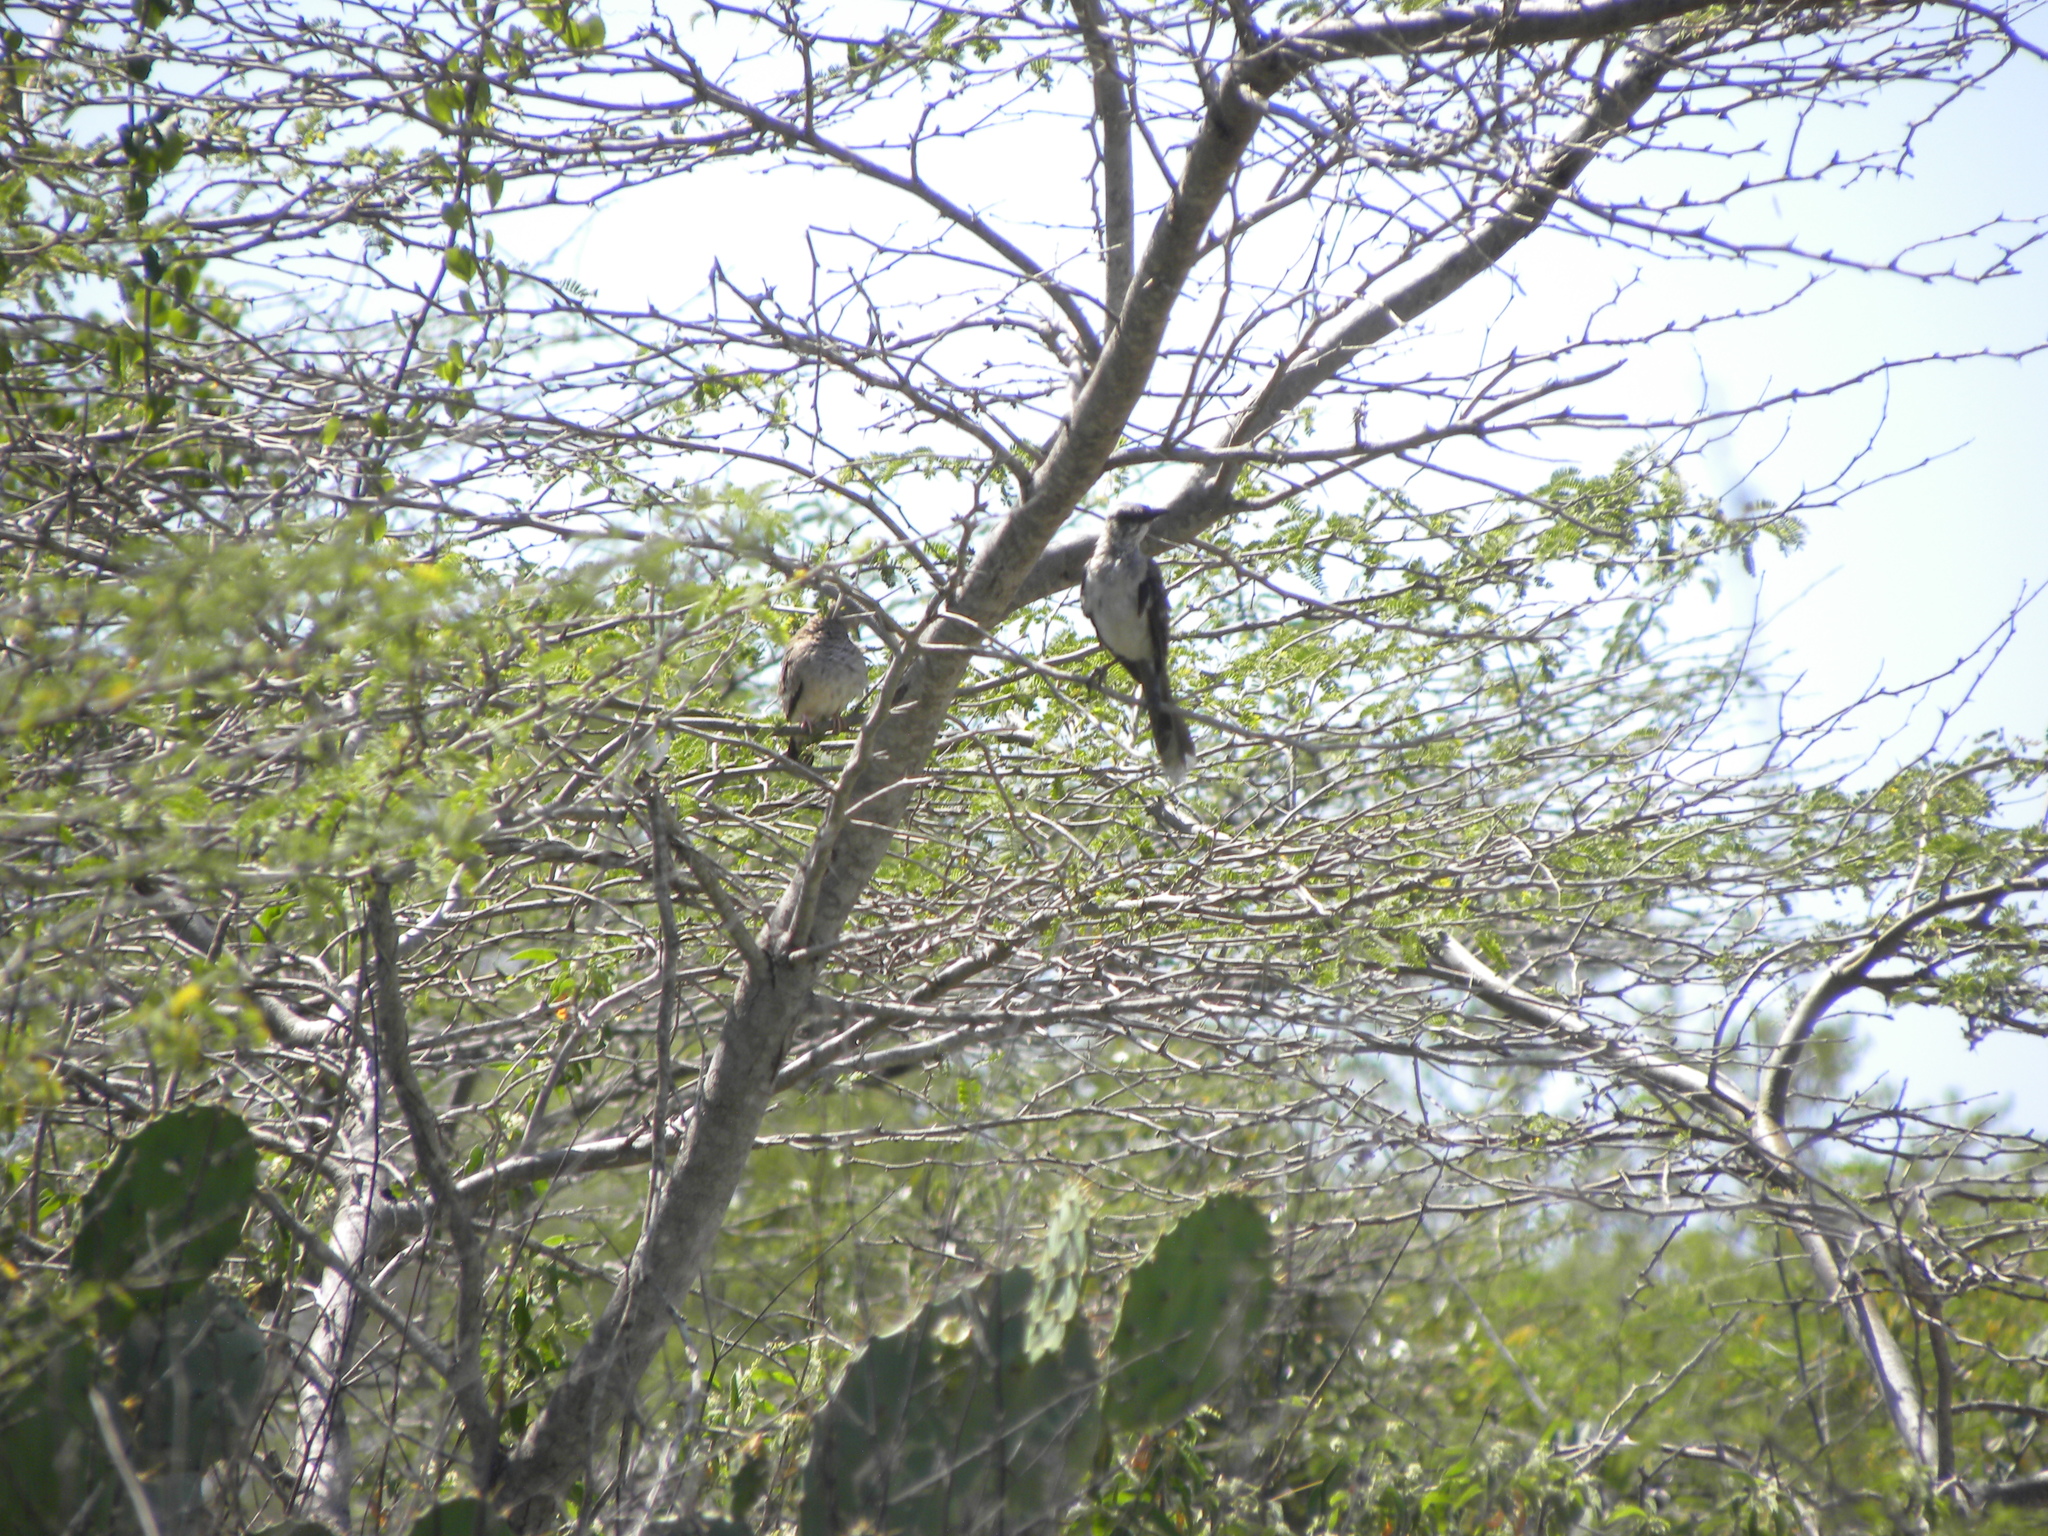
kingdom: Animalia
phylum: Chordata
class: Aves
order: Passeriformes
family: Mimidae
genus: Mimus
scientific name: Mimus gilvus
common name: Tropical mockingbird
